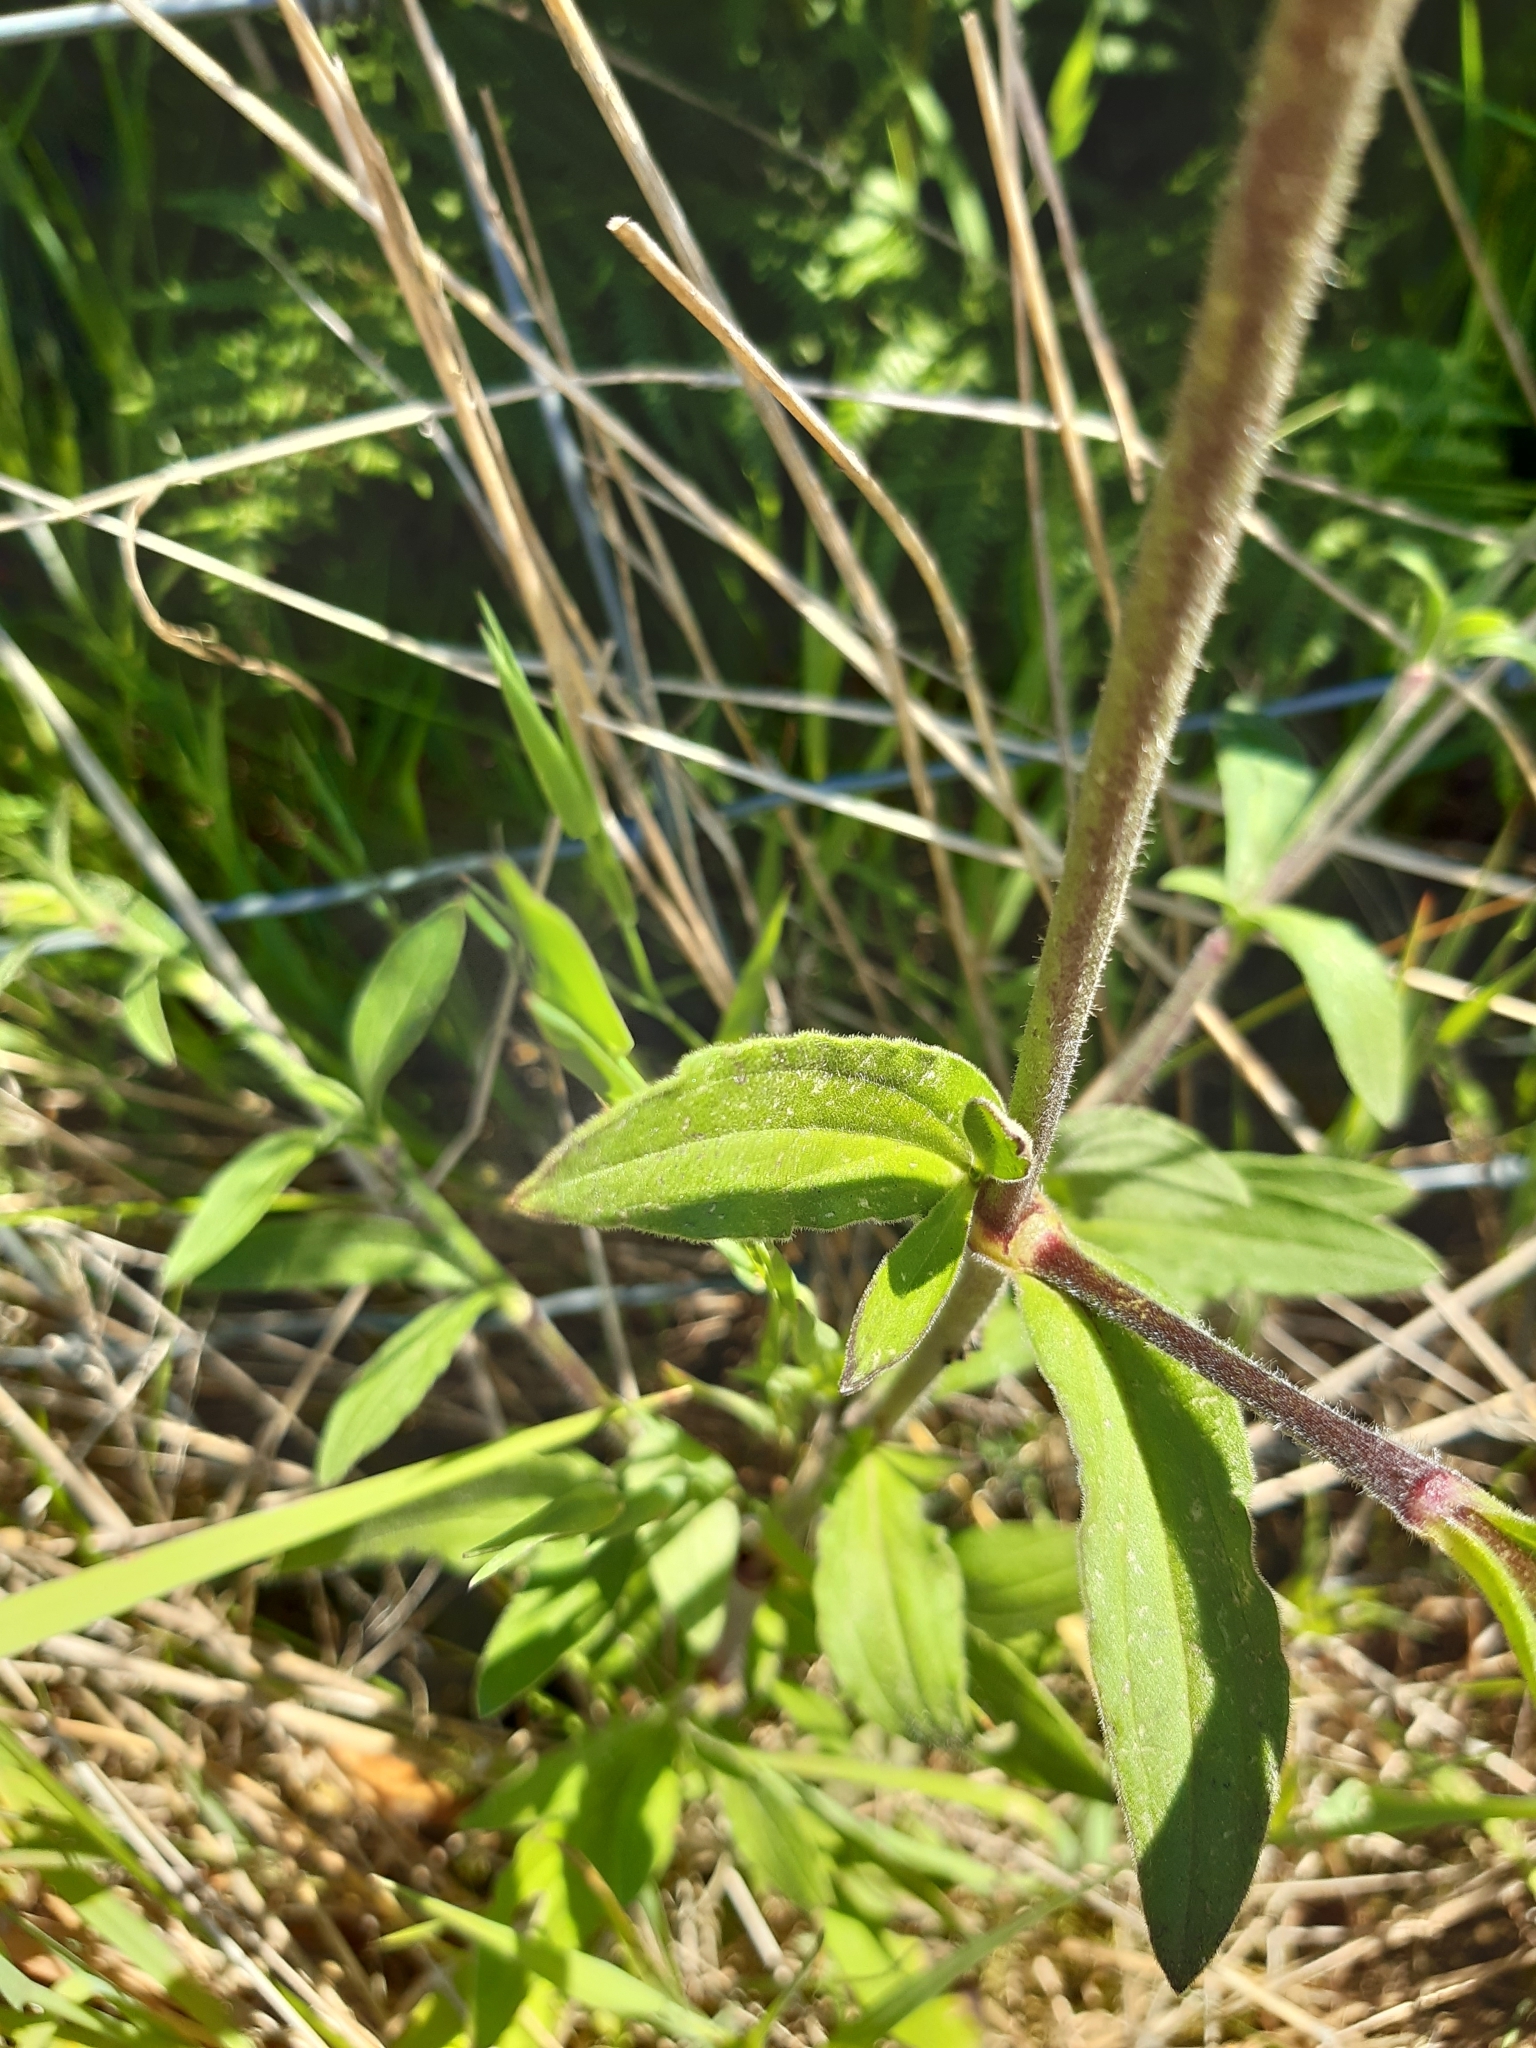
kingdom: Plantae
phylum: Tracheophyta
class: Magnoliopsida
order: Caryophyllales
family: Caryophyllaceae
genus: Silene
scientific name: Silene latifolia
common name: White campion
